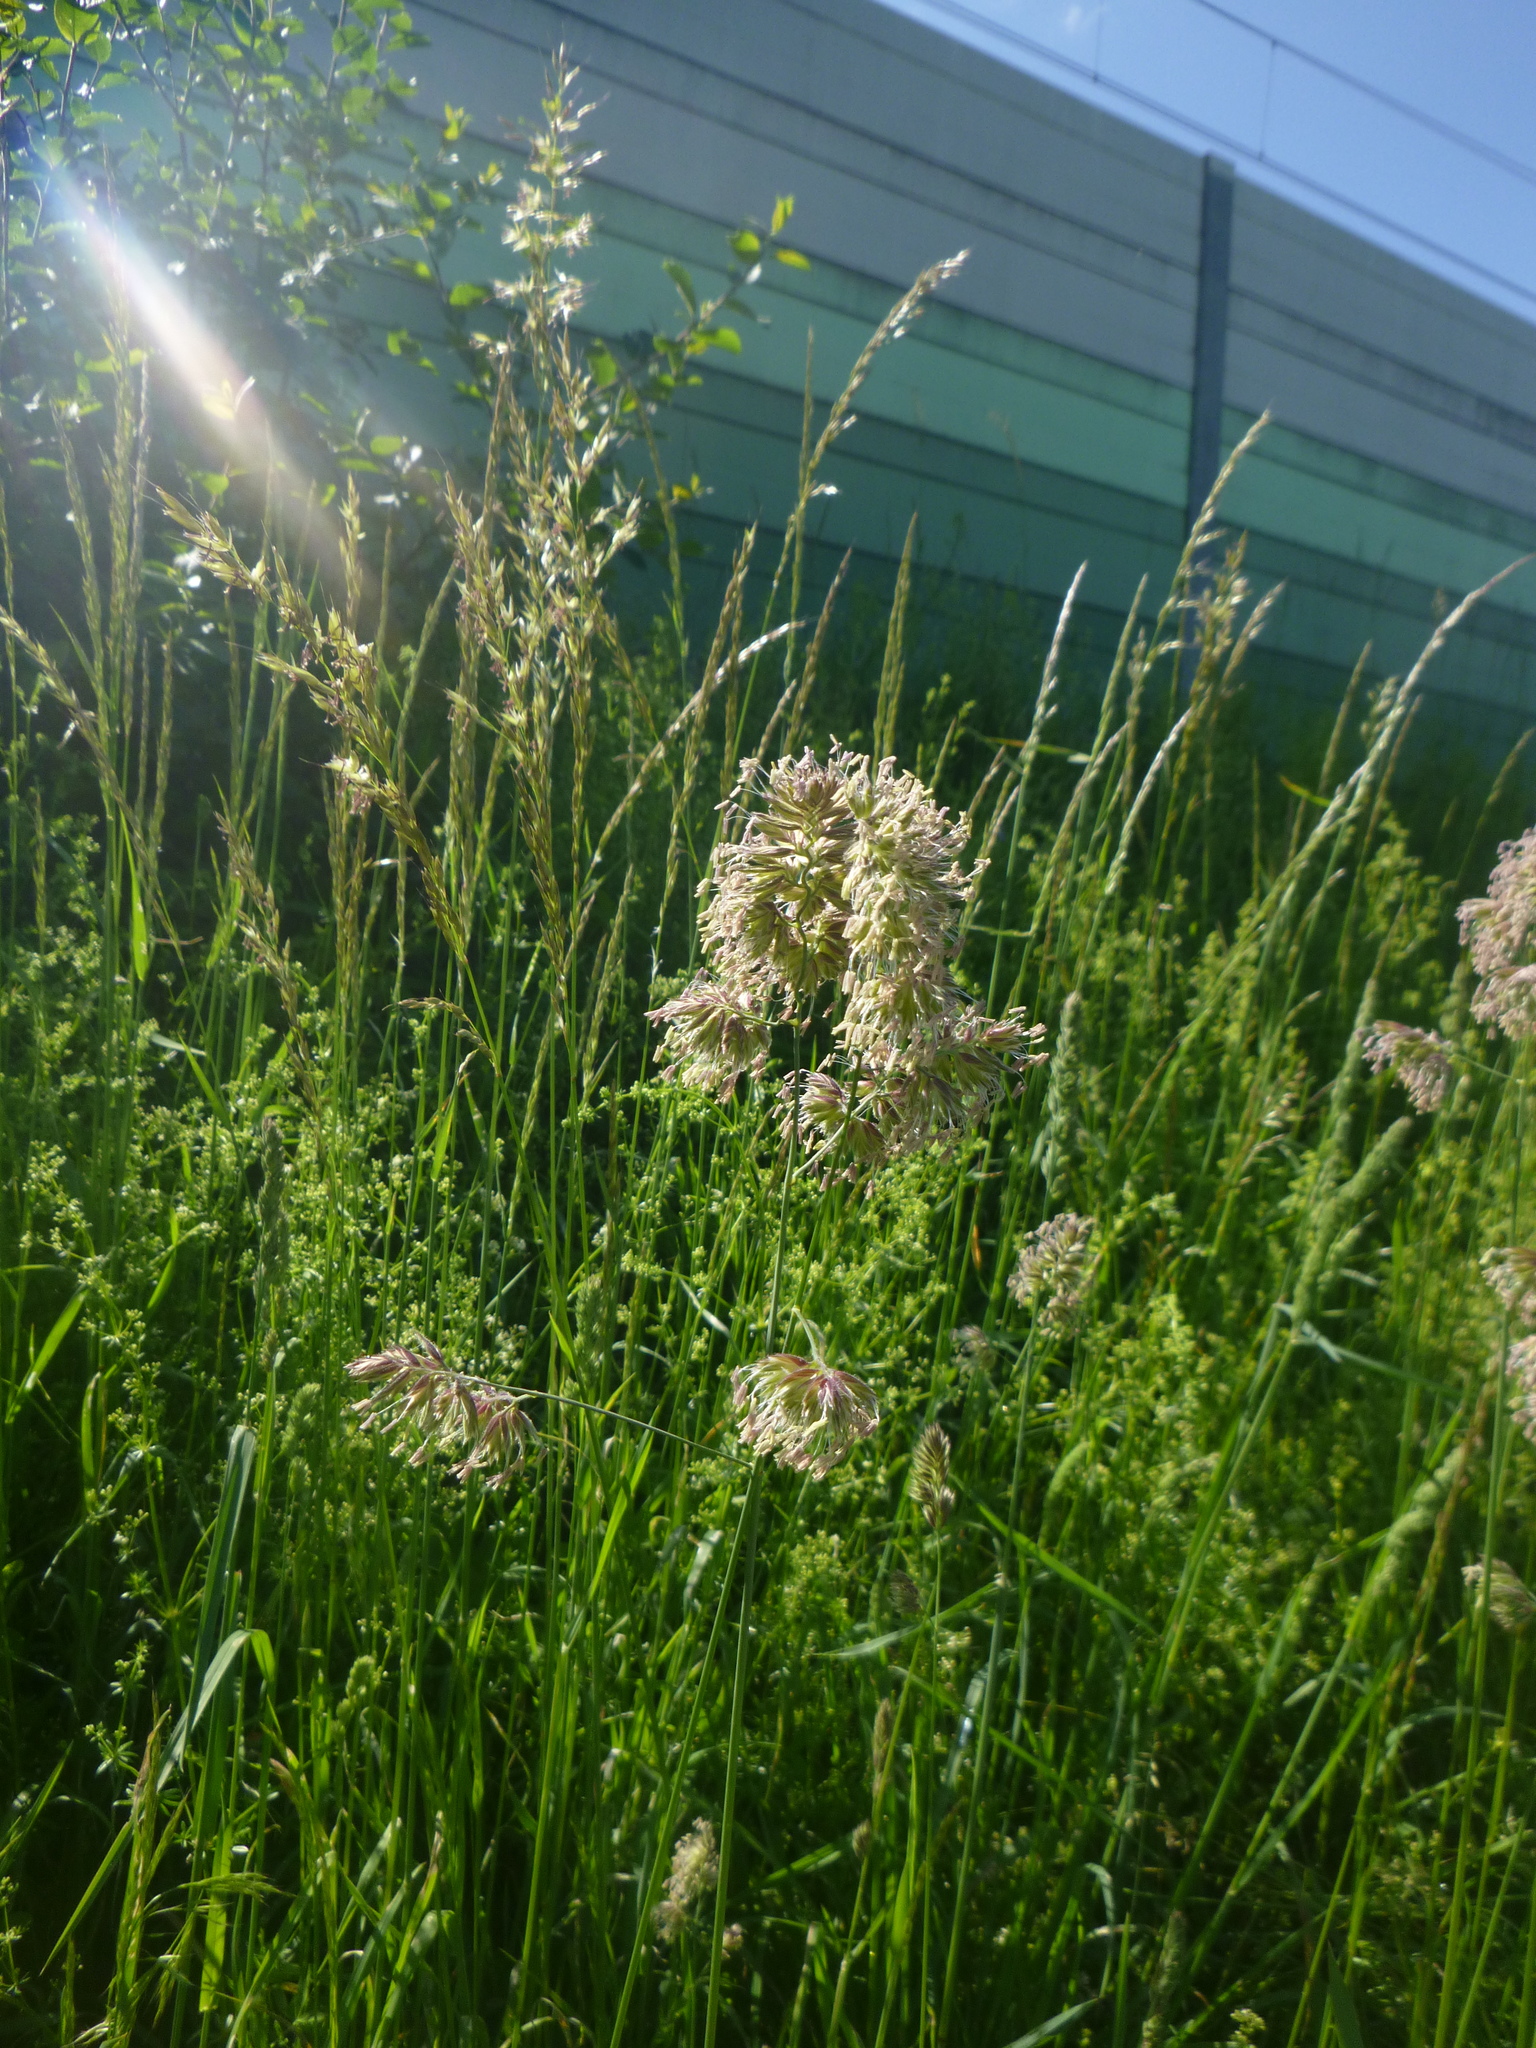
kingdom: Plantae
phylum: Tracheophyta
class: Liliopsida
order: Poales
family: Poaceae
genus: Dactylis
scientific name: Dactylis glomerata
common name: Orchardgrass
